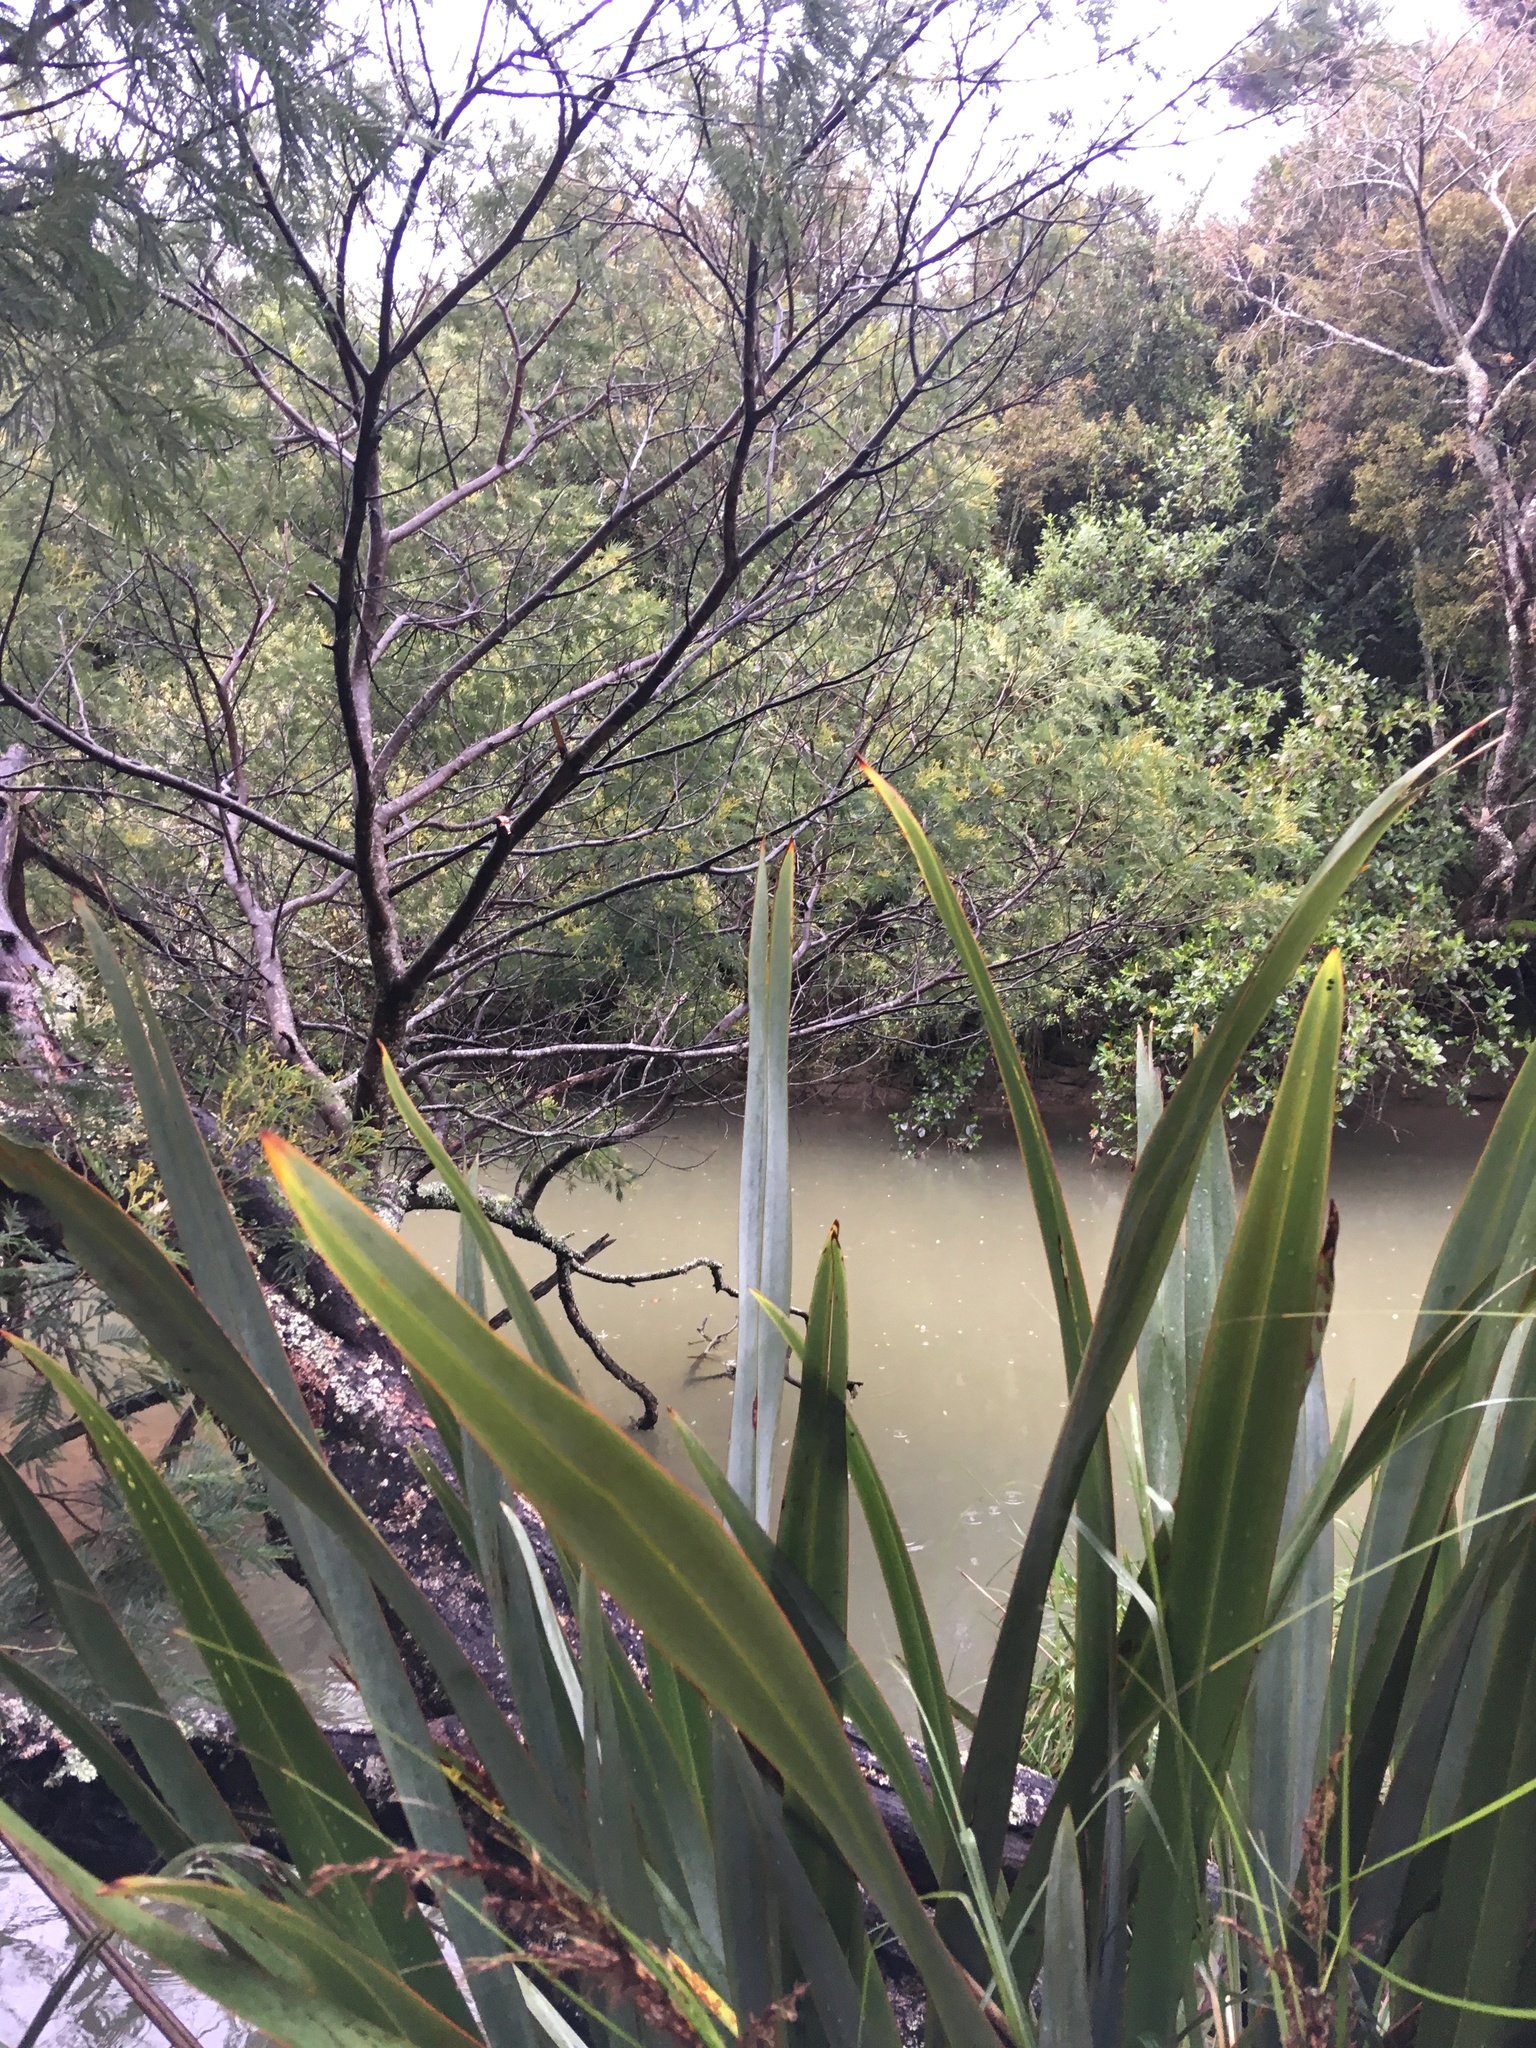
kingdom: Plantae
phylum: Tracheophyta
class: Liliopsida
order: Asparagales
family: Asphodelaceae
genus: Phormium
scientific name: Phormium tenax
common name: New zealand flax
